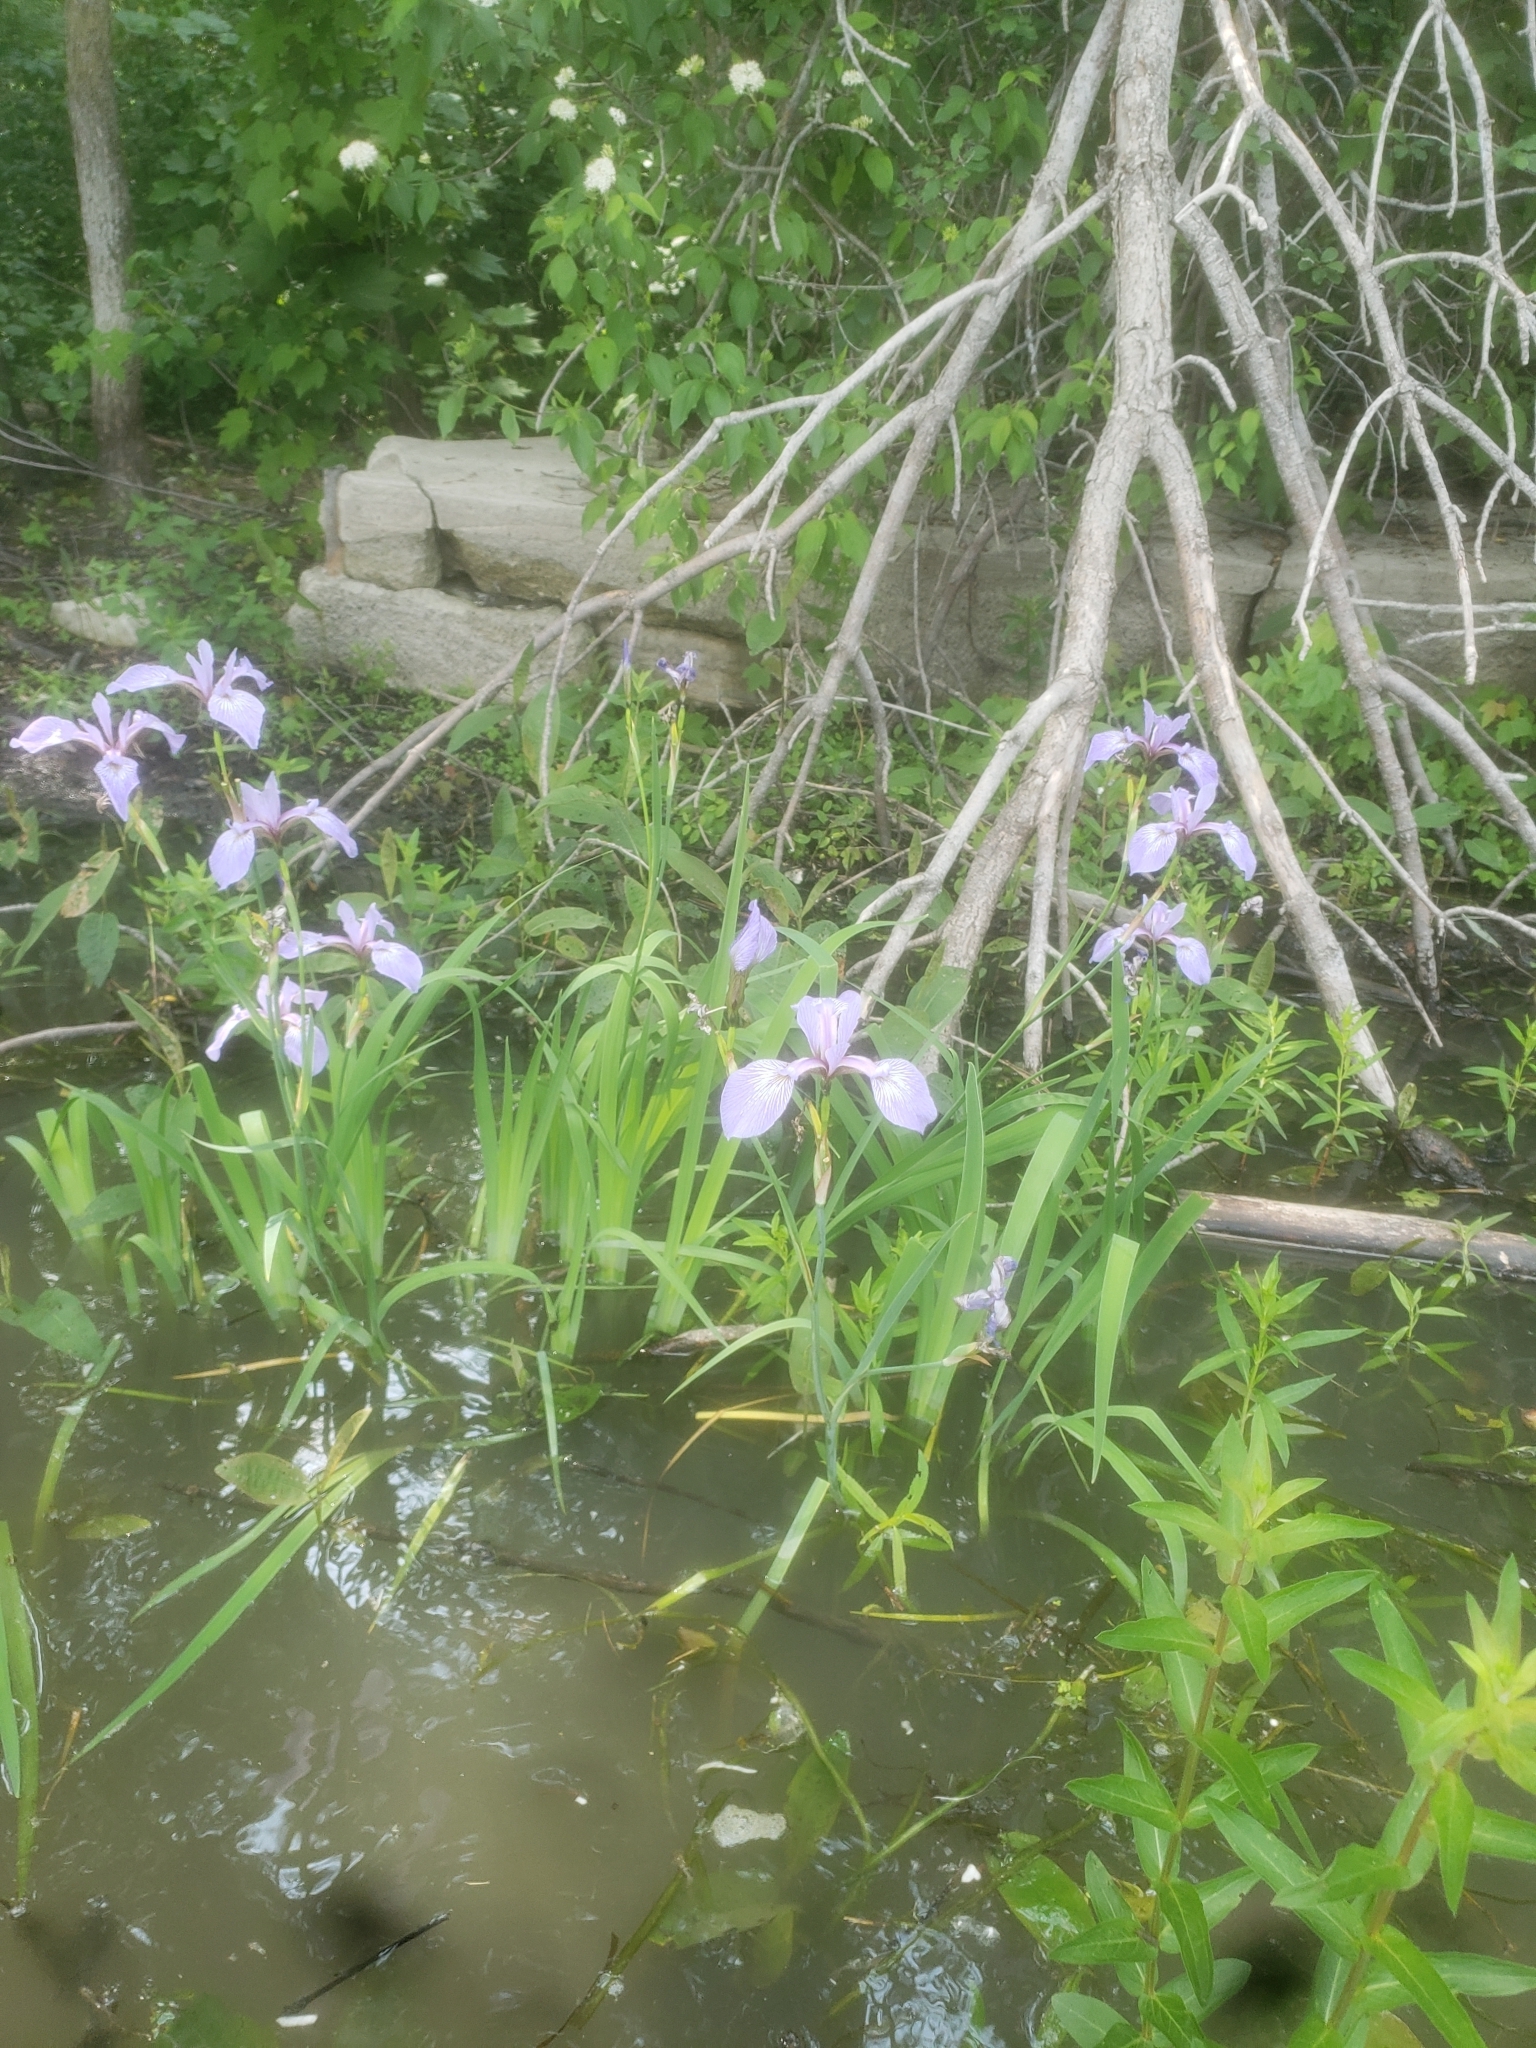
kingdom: Plantae
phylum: Tracheophyta
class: Liliopsida
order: Asparagales
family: Iridaceae
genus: Iris
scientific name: Iris versicolor
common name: Purple iris
